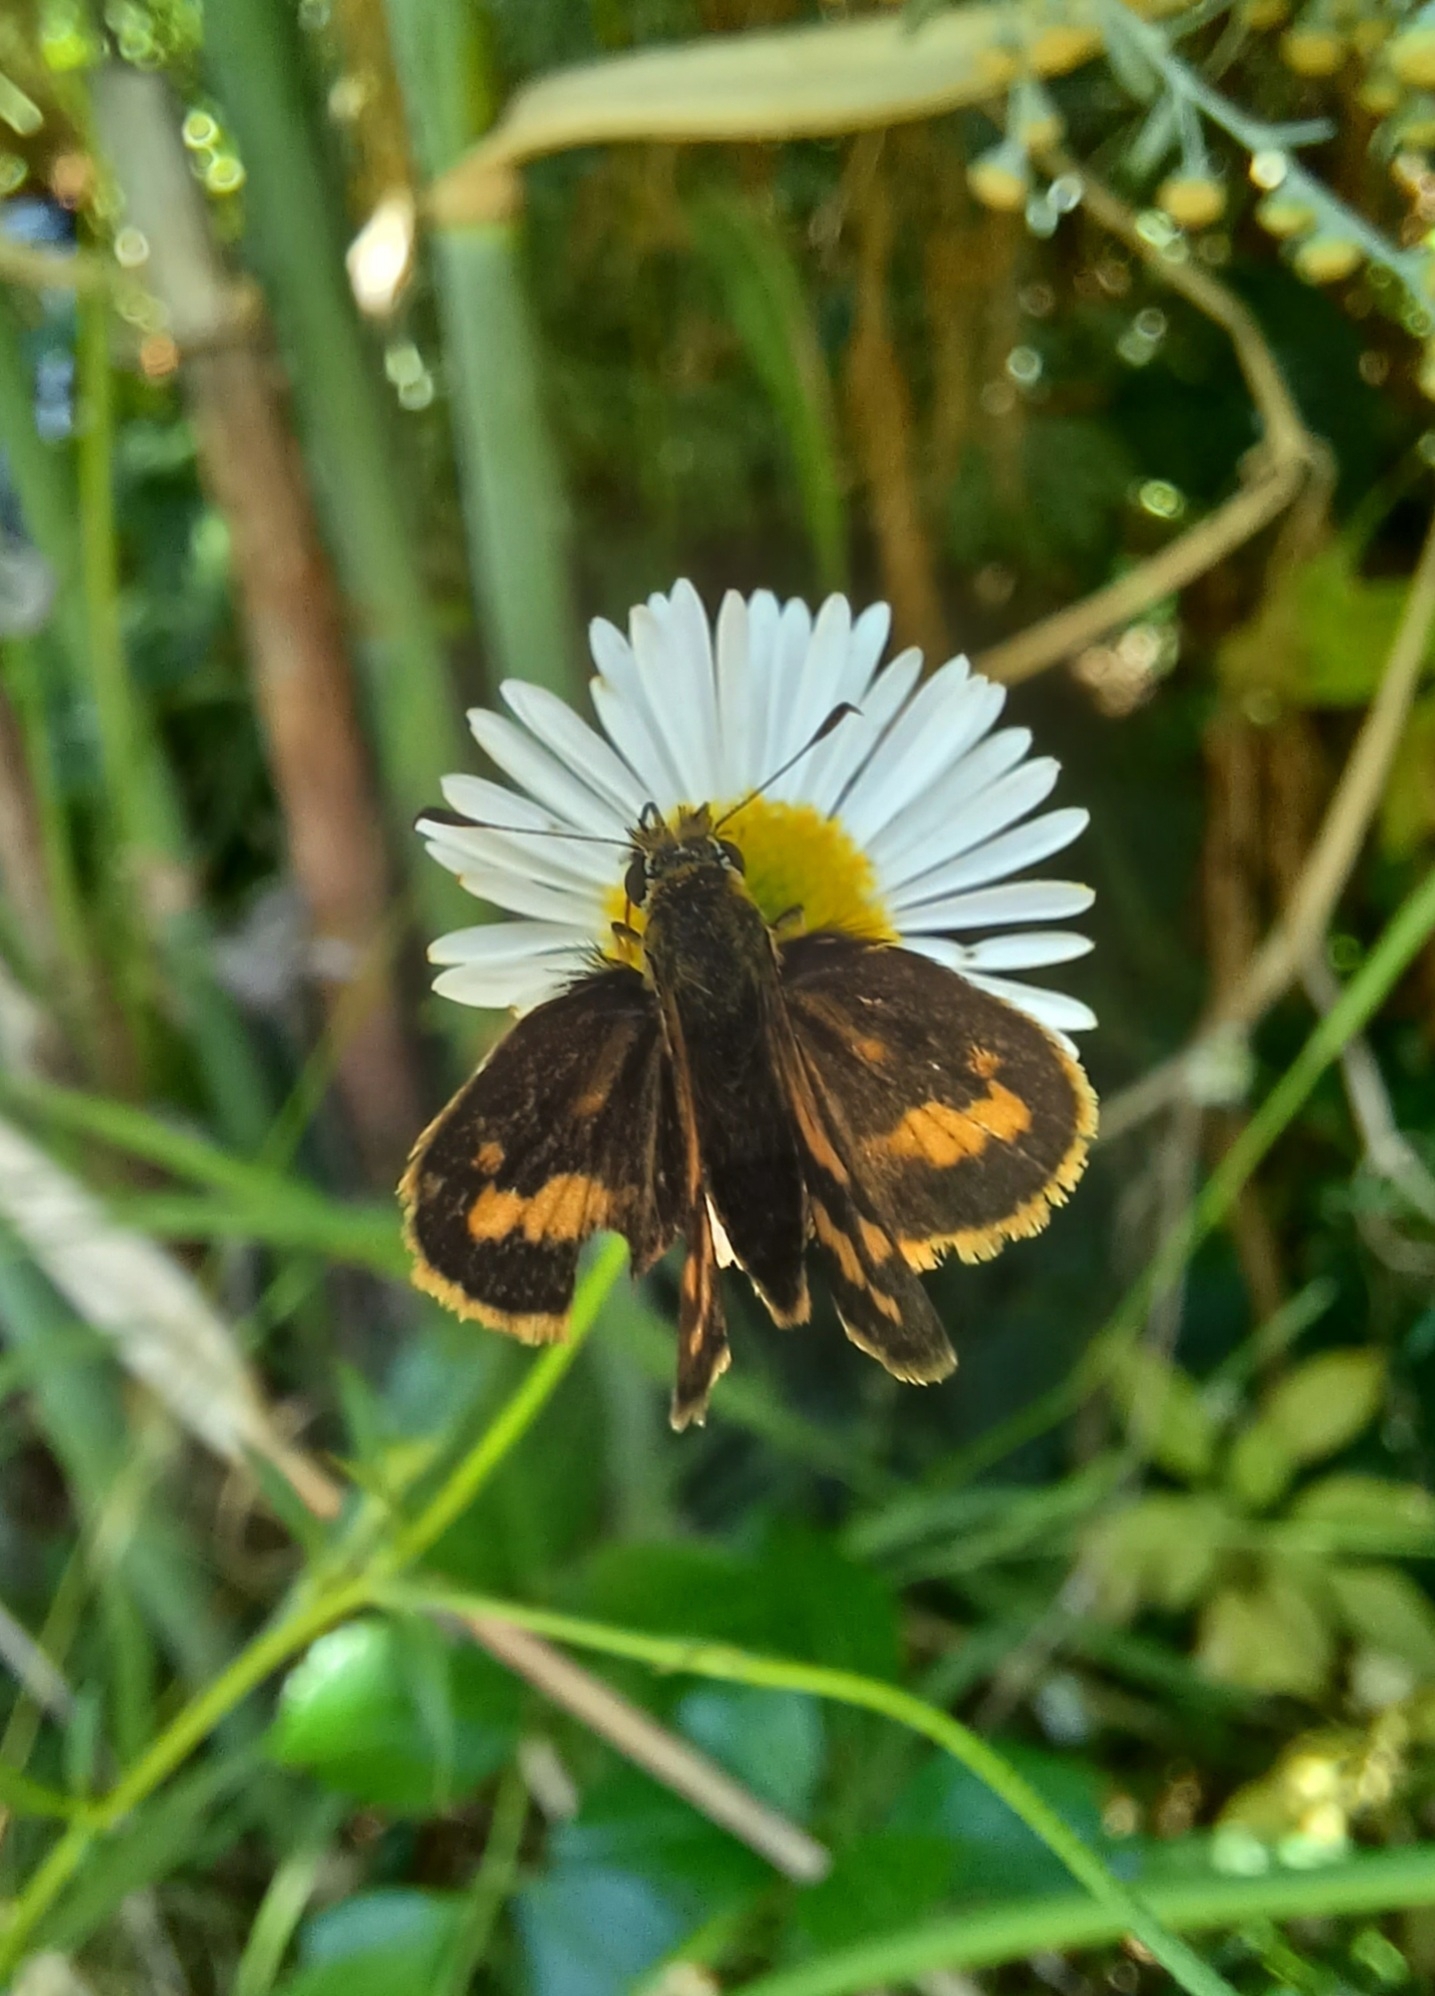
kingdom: Animalia
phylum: Arthropoda
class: Insecta
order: Lepidoptera
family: Hesperiidae
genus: Ocybadistes
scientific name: Ocybadistes walkeri
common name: Yellow-banded dart
